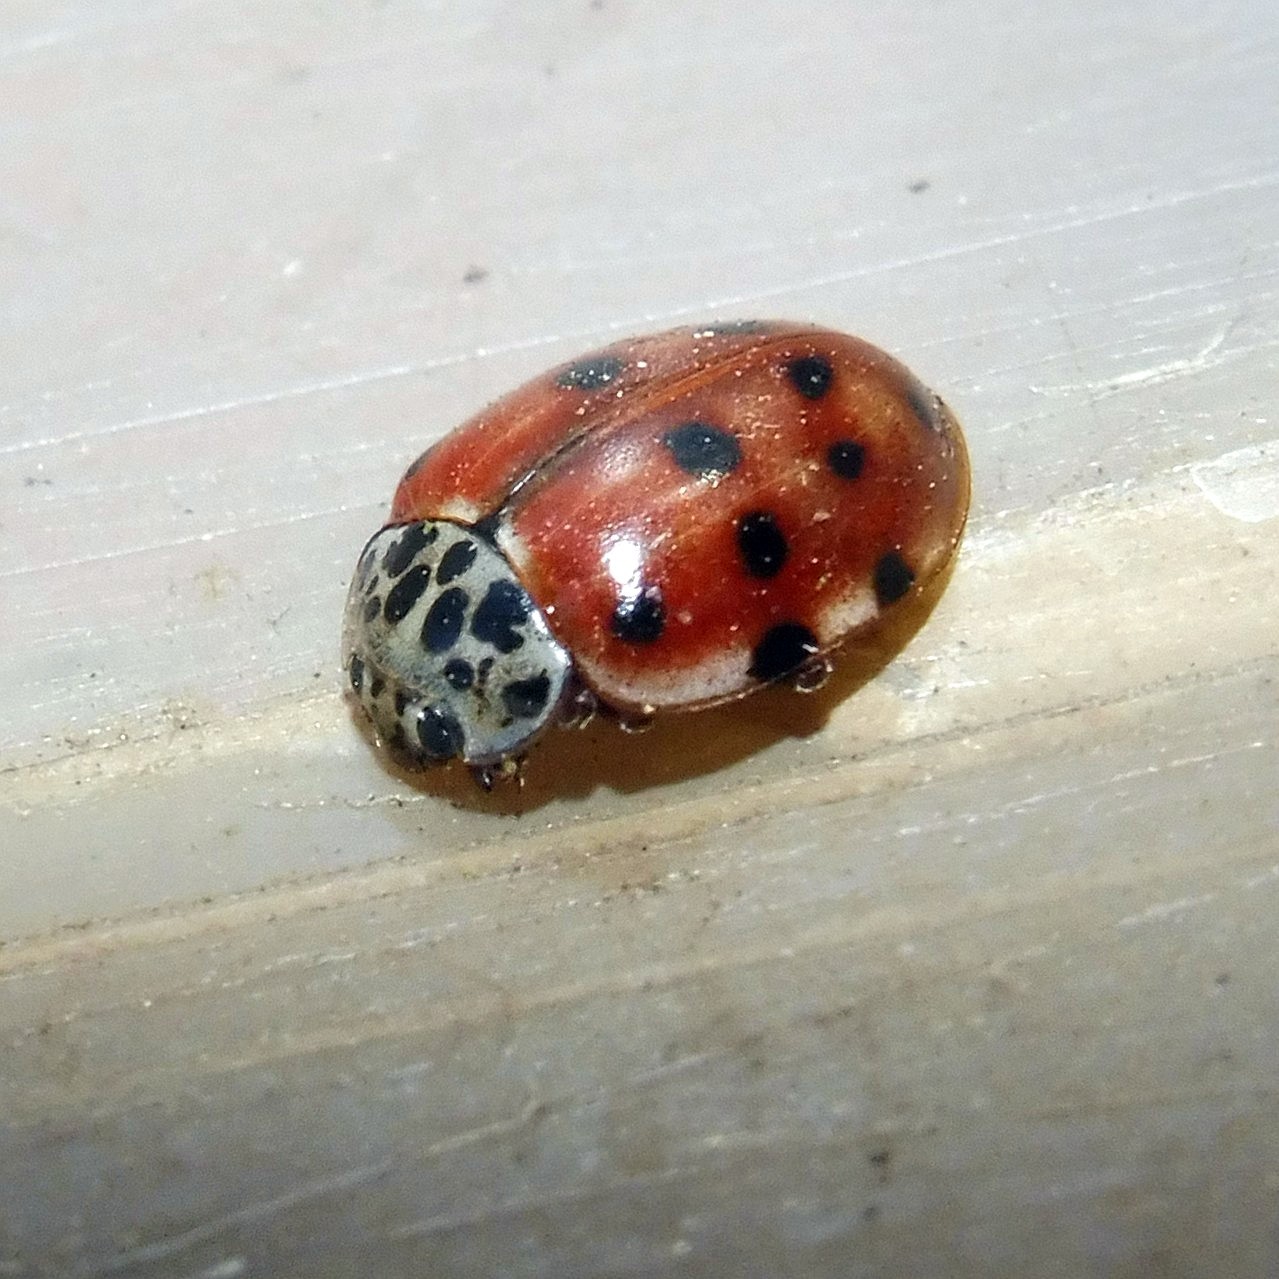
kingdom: Animalia
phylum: Arthropoda
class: Insecta
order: Coleoptera
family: Coccinellidae
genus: Harmonia
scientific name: Harmonia quadripunctata
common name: Cream-streaked ladybird
